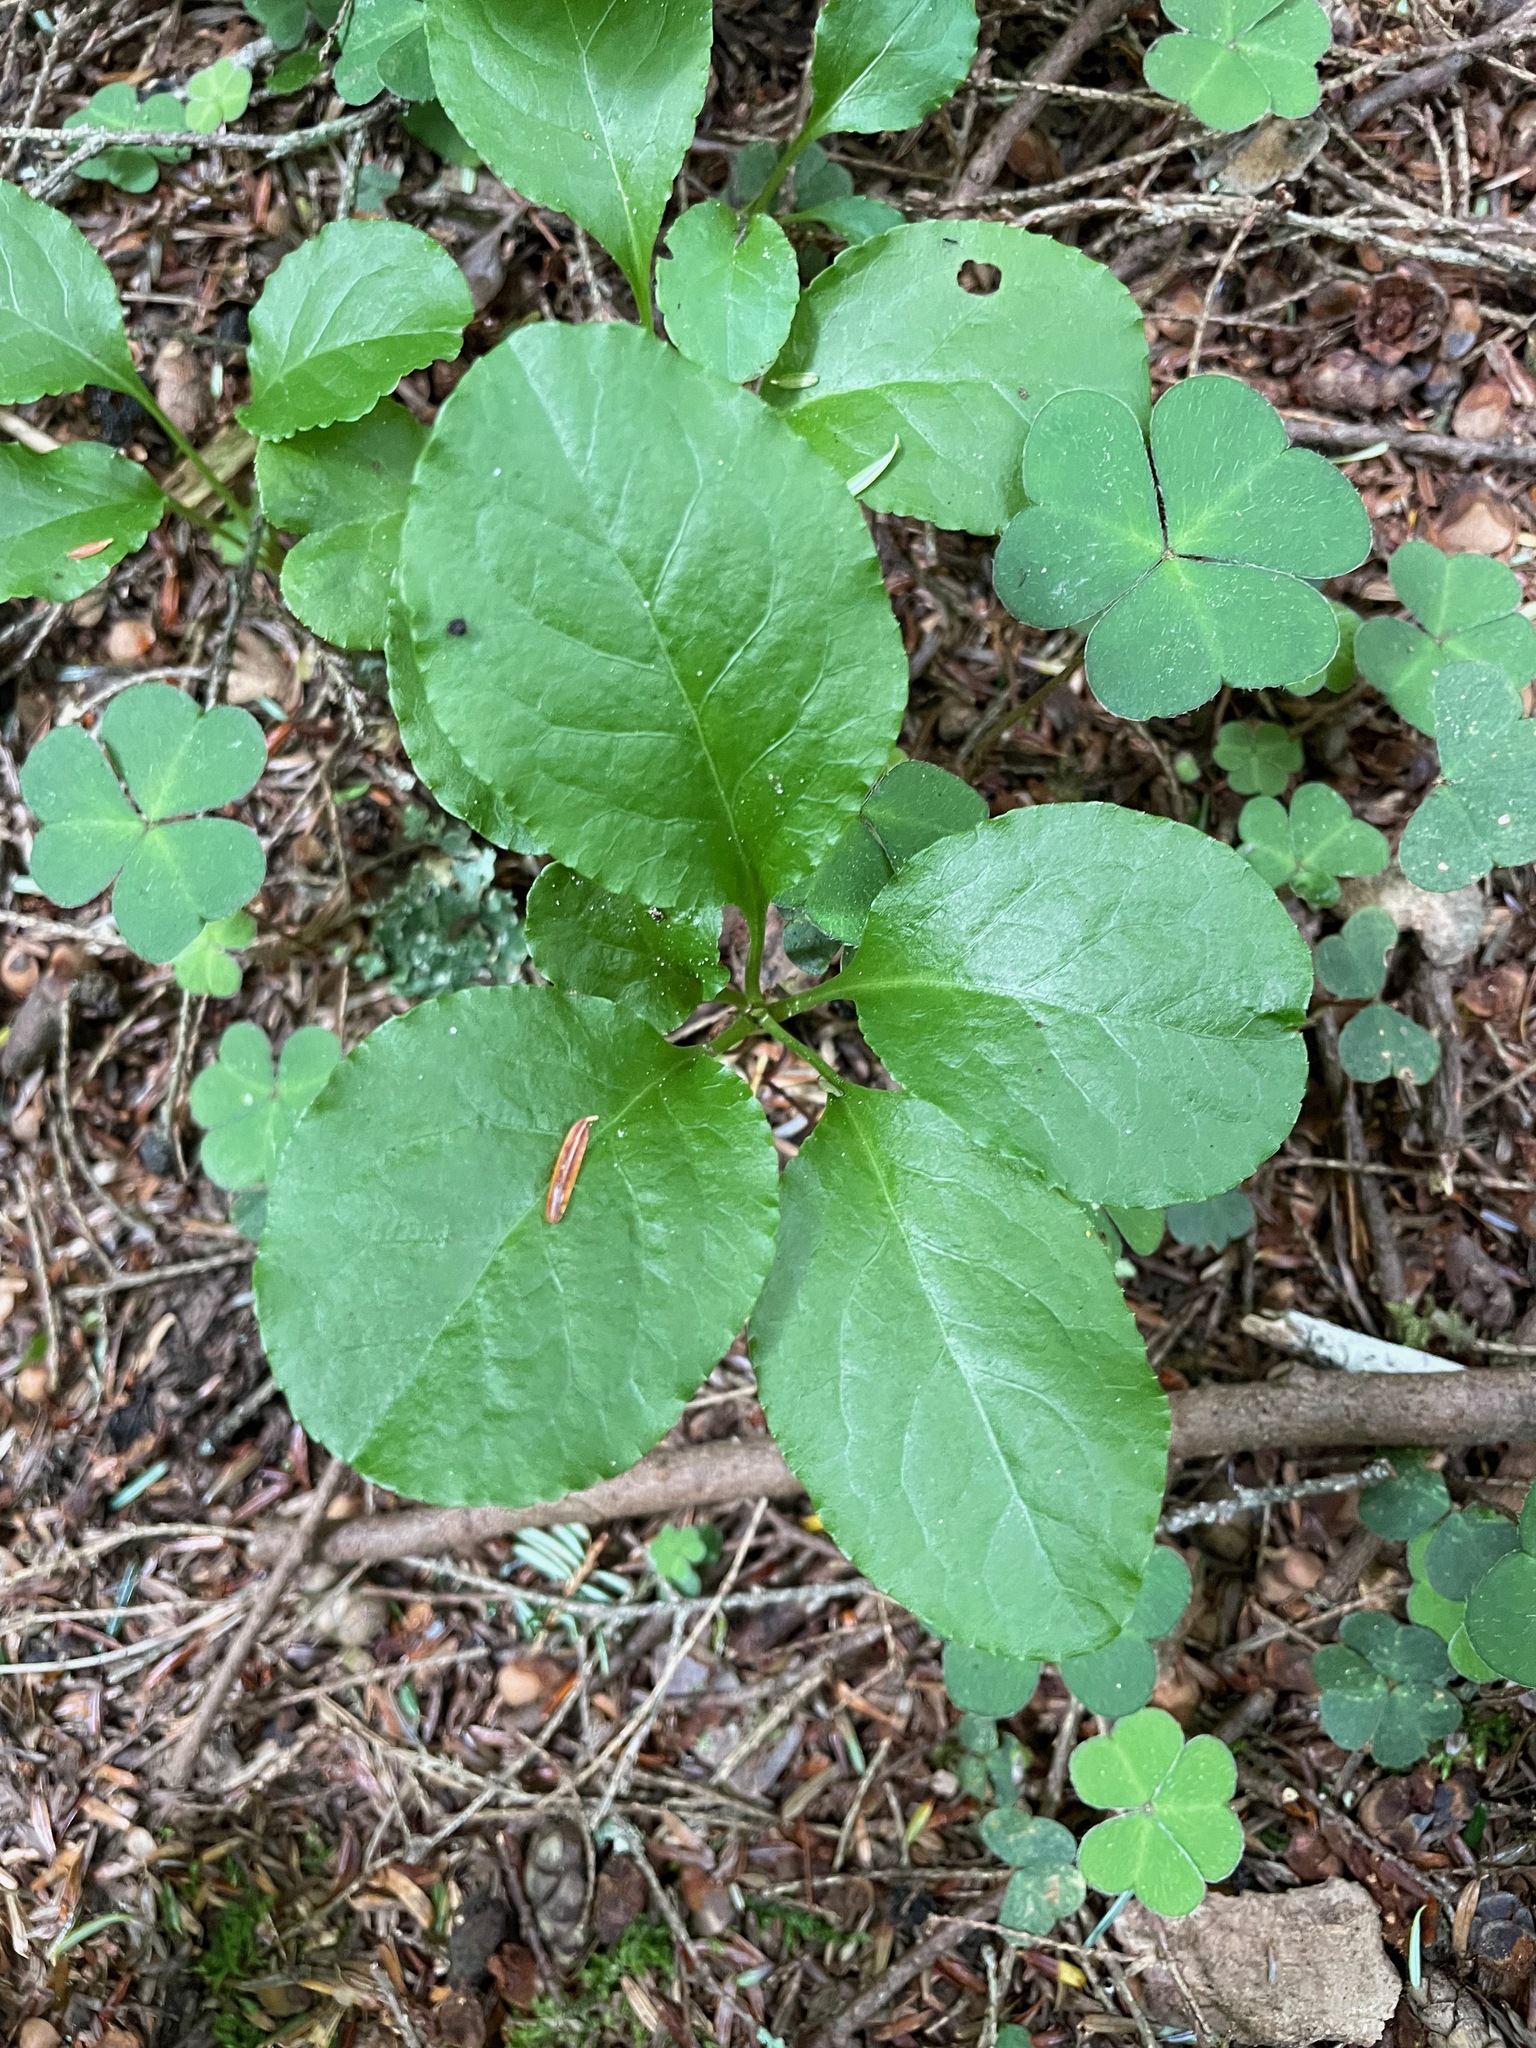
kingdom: Plantae
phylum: Tracheophyta
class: Magnoliopsida
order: Ericales
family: Ericaceae
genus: Pyrola
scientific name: Pyrola elliptica
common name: Shinleaf
